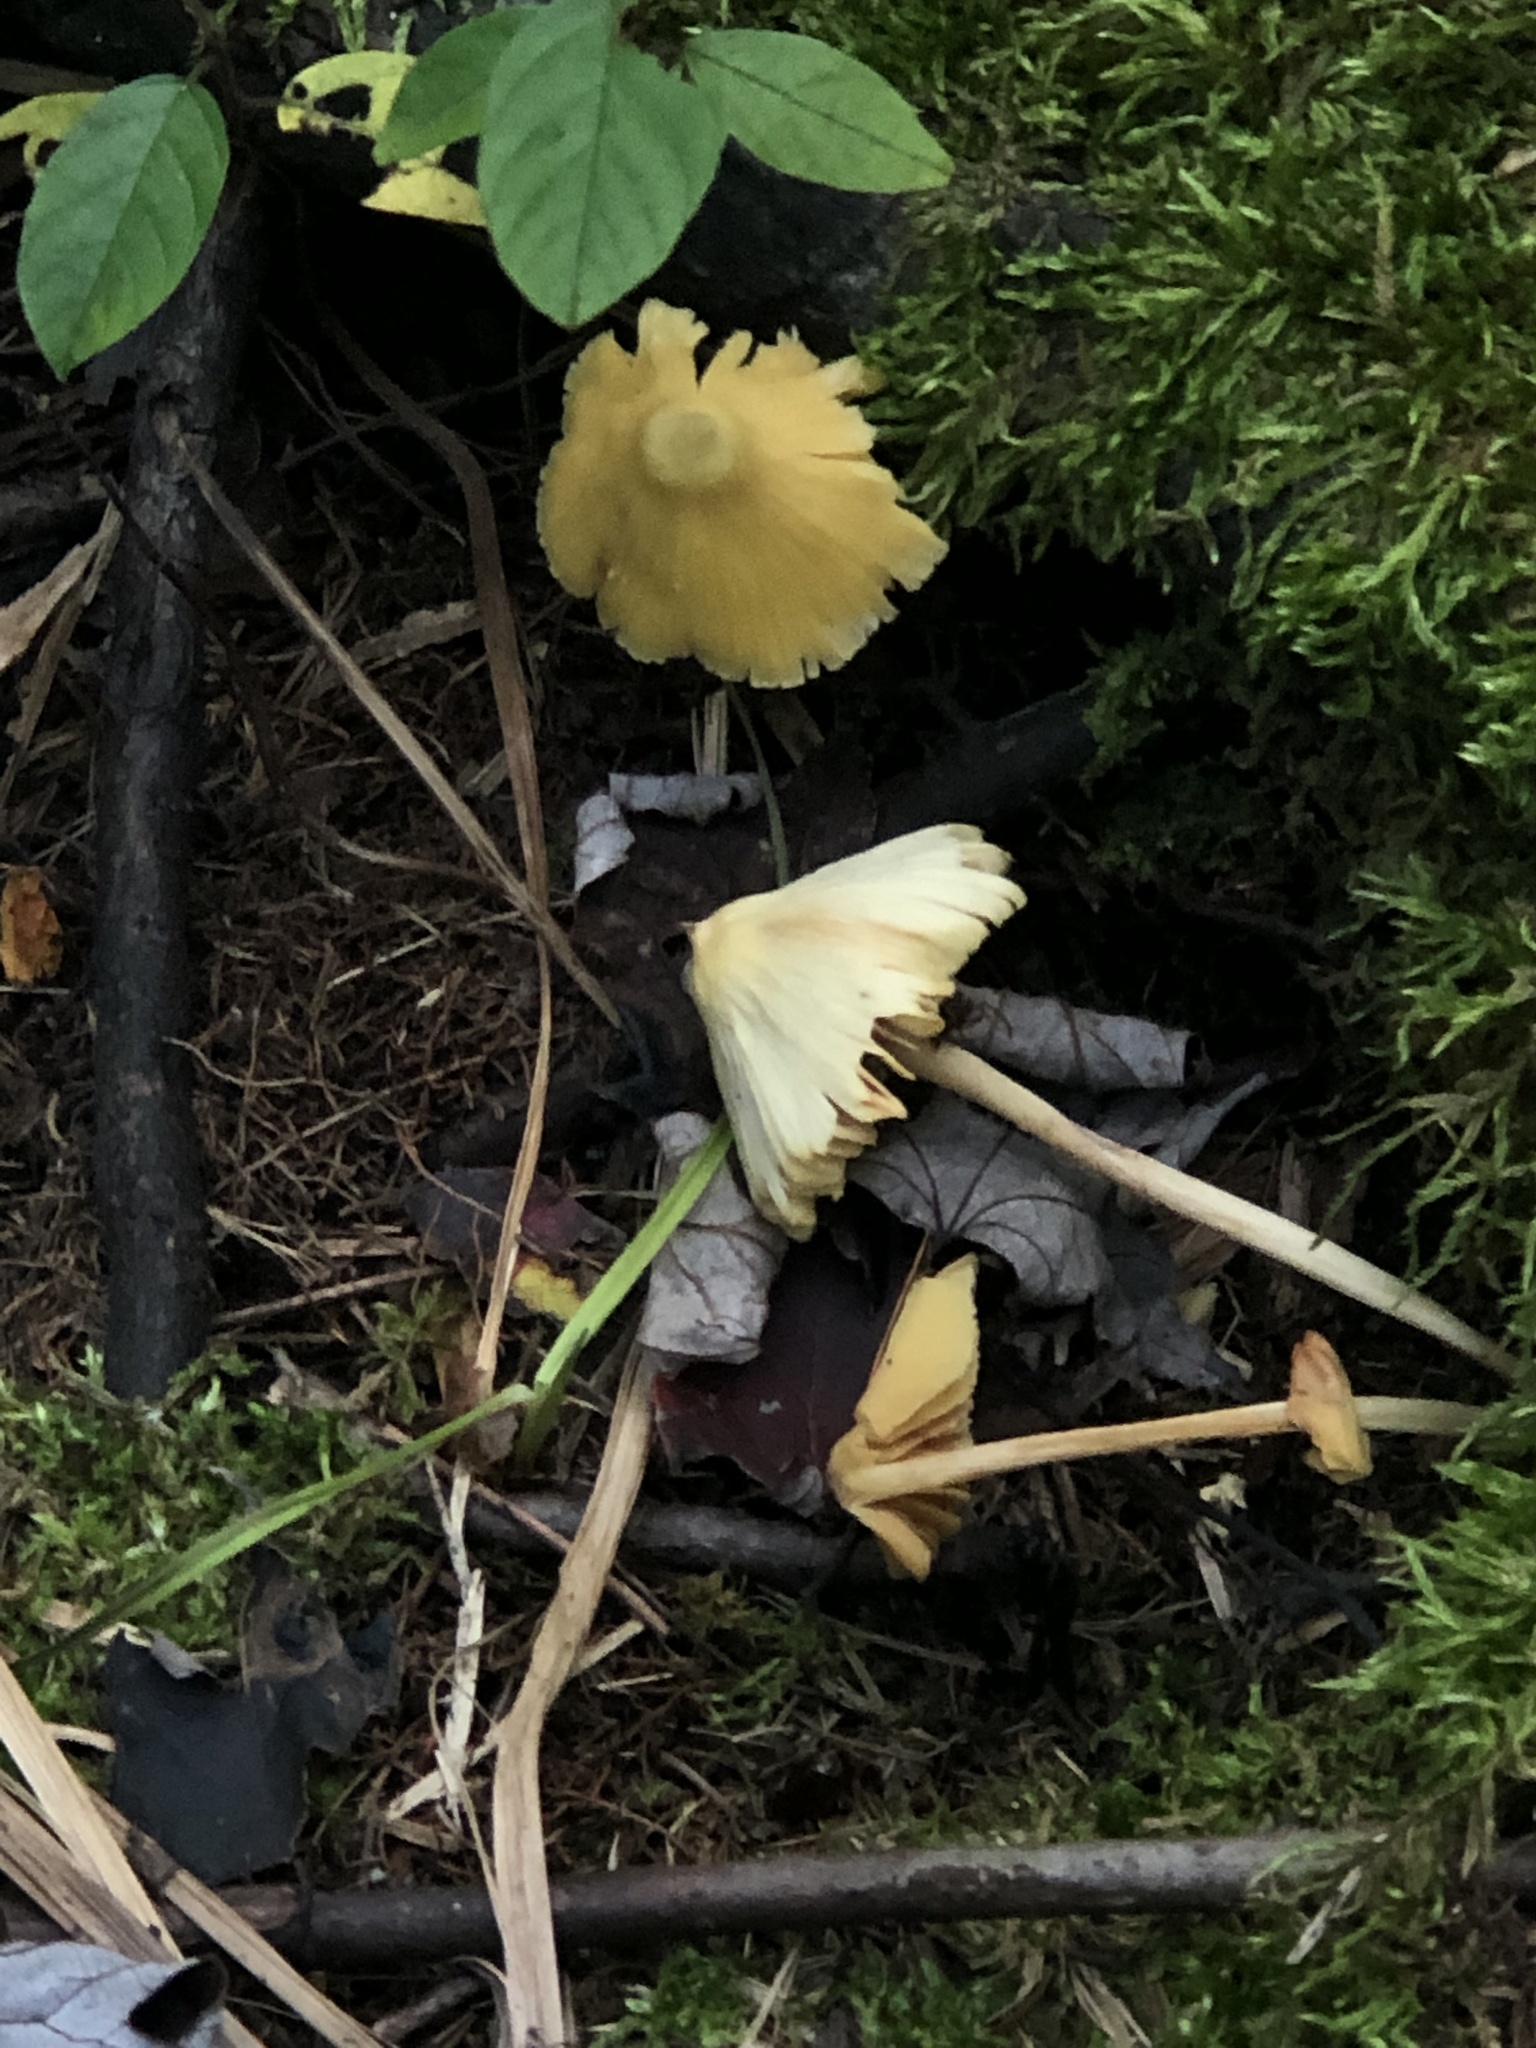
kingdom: Fungi
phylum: Basidiomycota
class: Agaricomycetes
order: Agaricales
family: Entolomataceae
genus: Entoloma
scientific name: Entoloma murrayi
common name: Yellow unicorn entoloma
